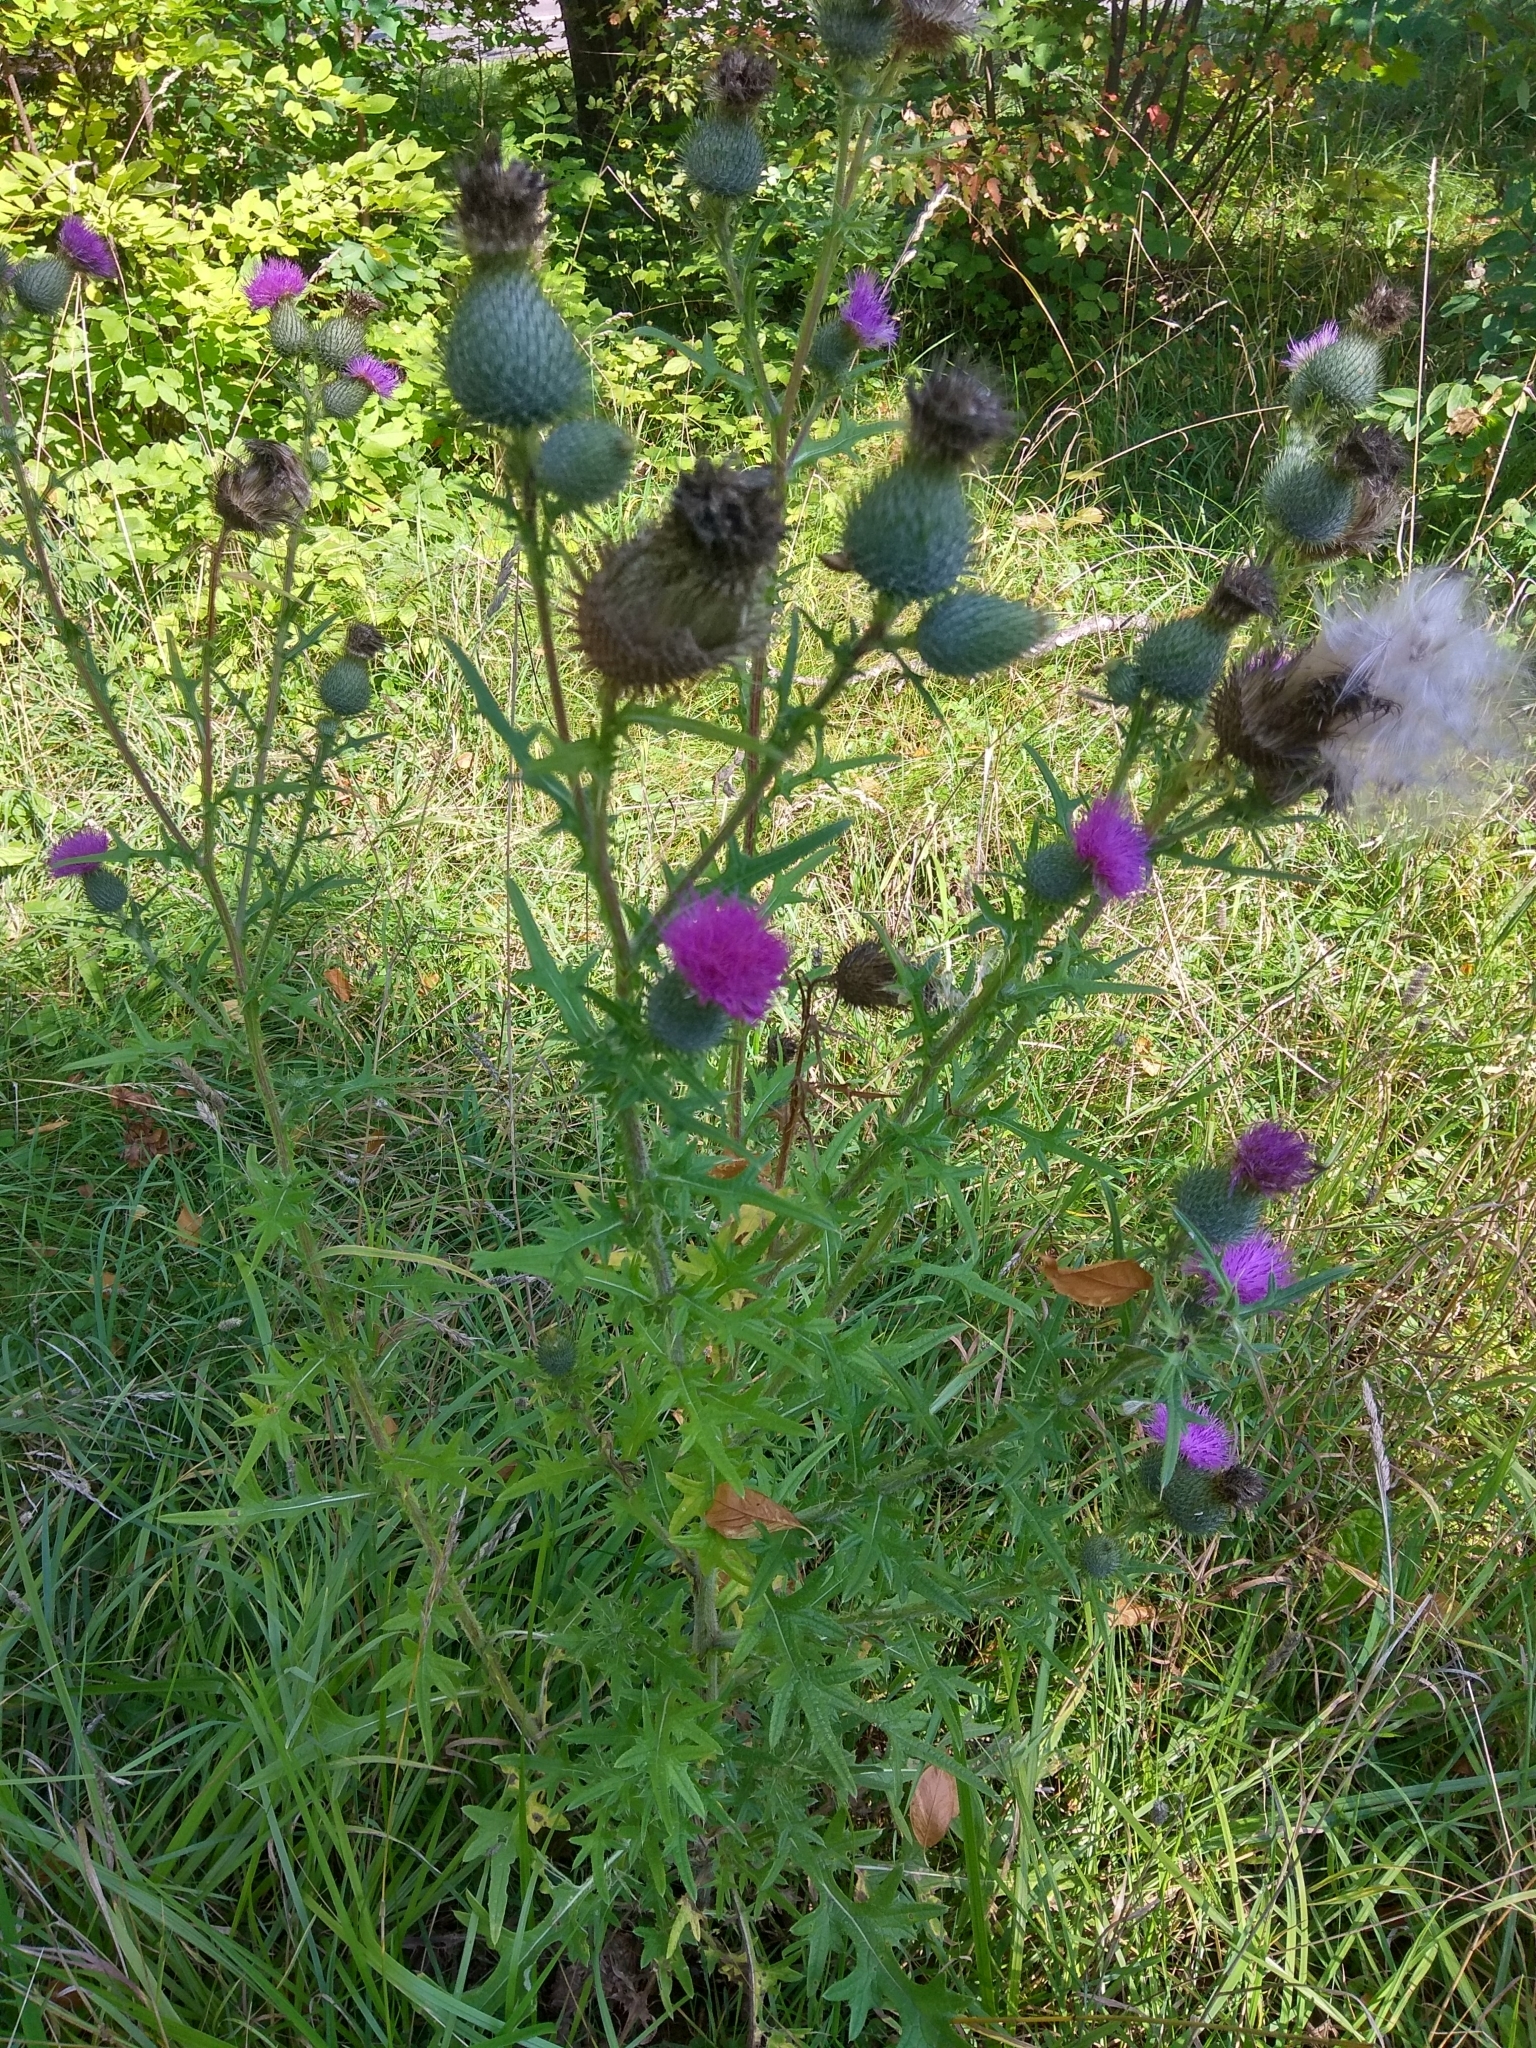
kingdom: Plantae
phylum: Tracheophyta
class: Magnoliopsida
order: Asterales
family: Asteraceae
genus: Cirsium
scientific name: Cirsium vulgare
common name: Bull thistle
